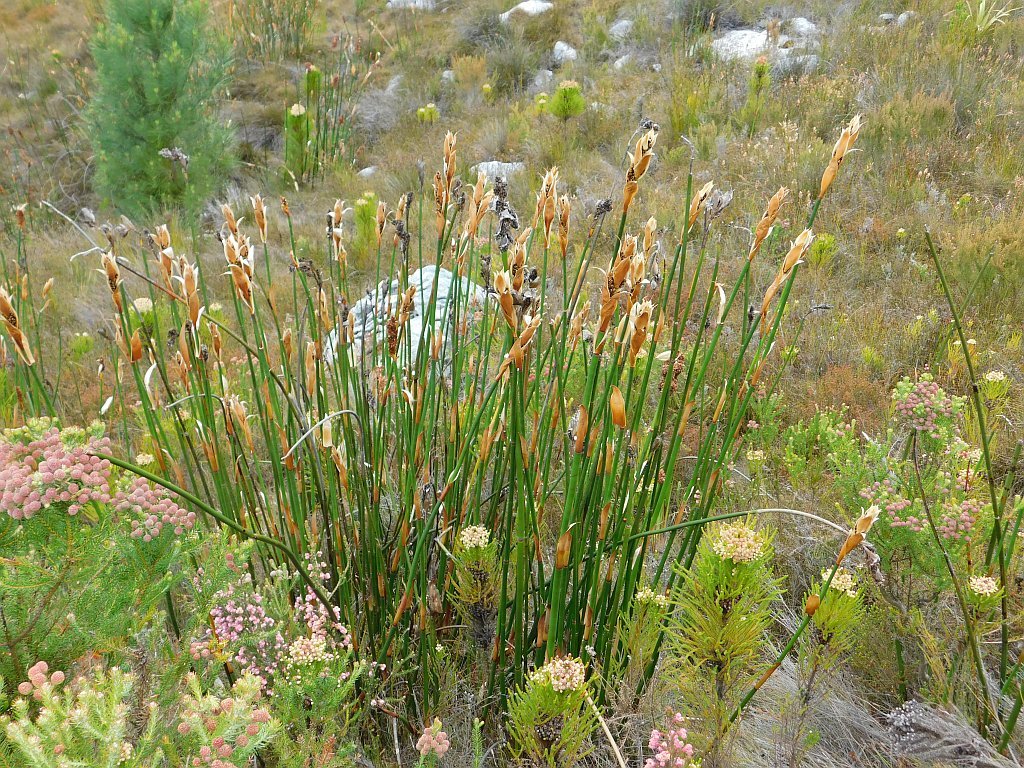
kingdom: Plantae
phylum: Tracheophyta
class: Liliopsida
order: Poales
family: Restionaceae
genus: Elegia
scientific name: Elegia mucronata
